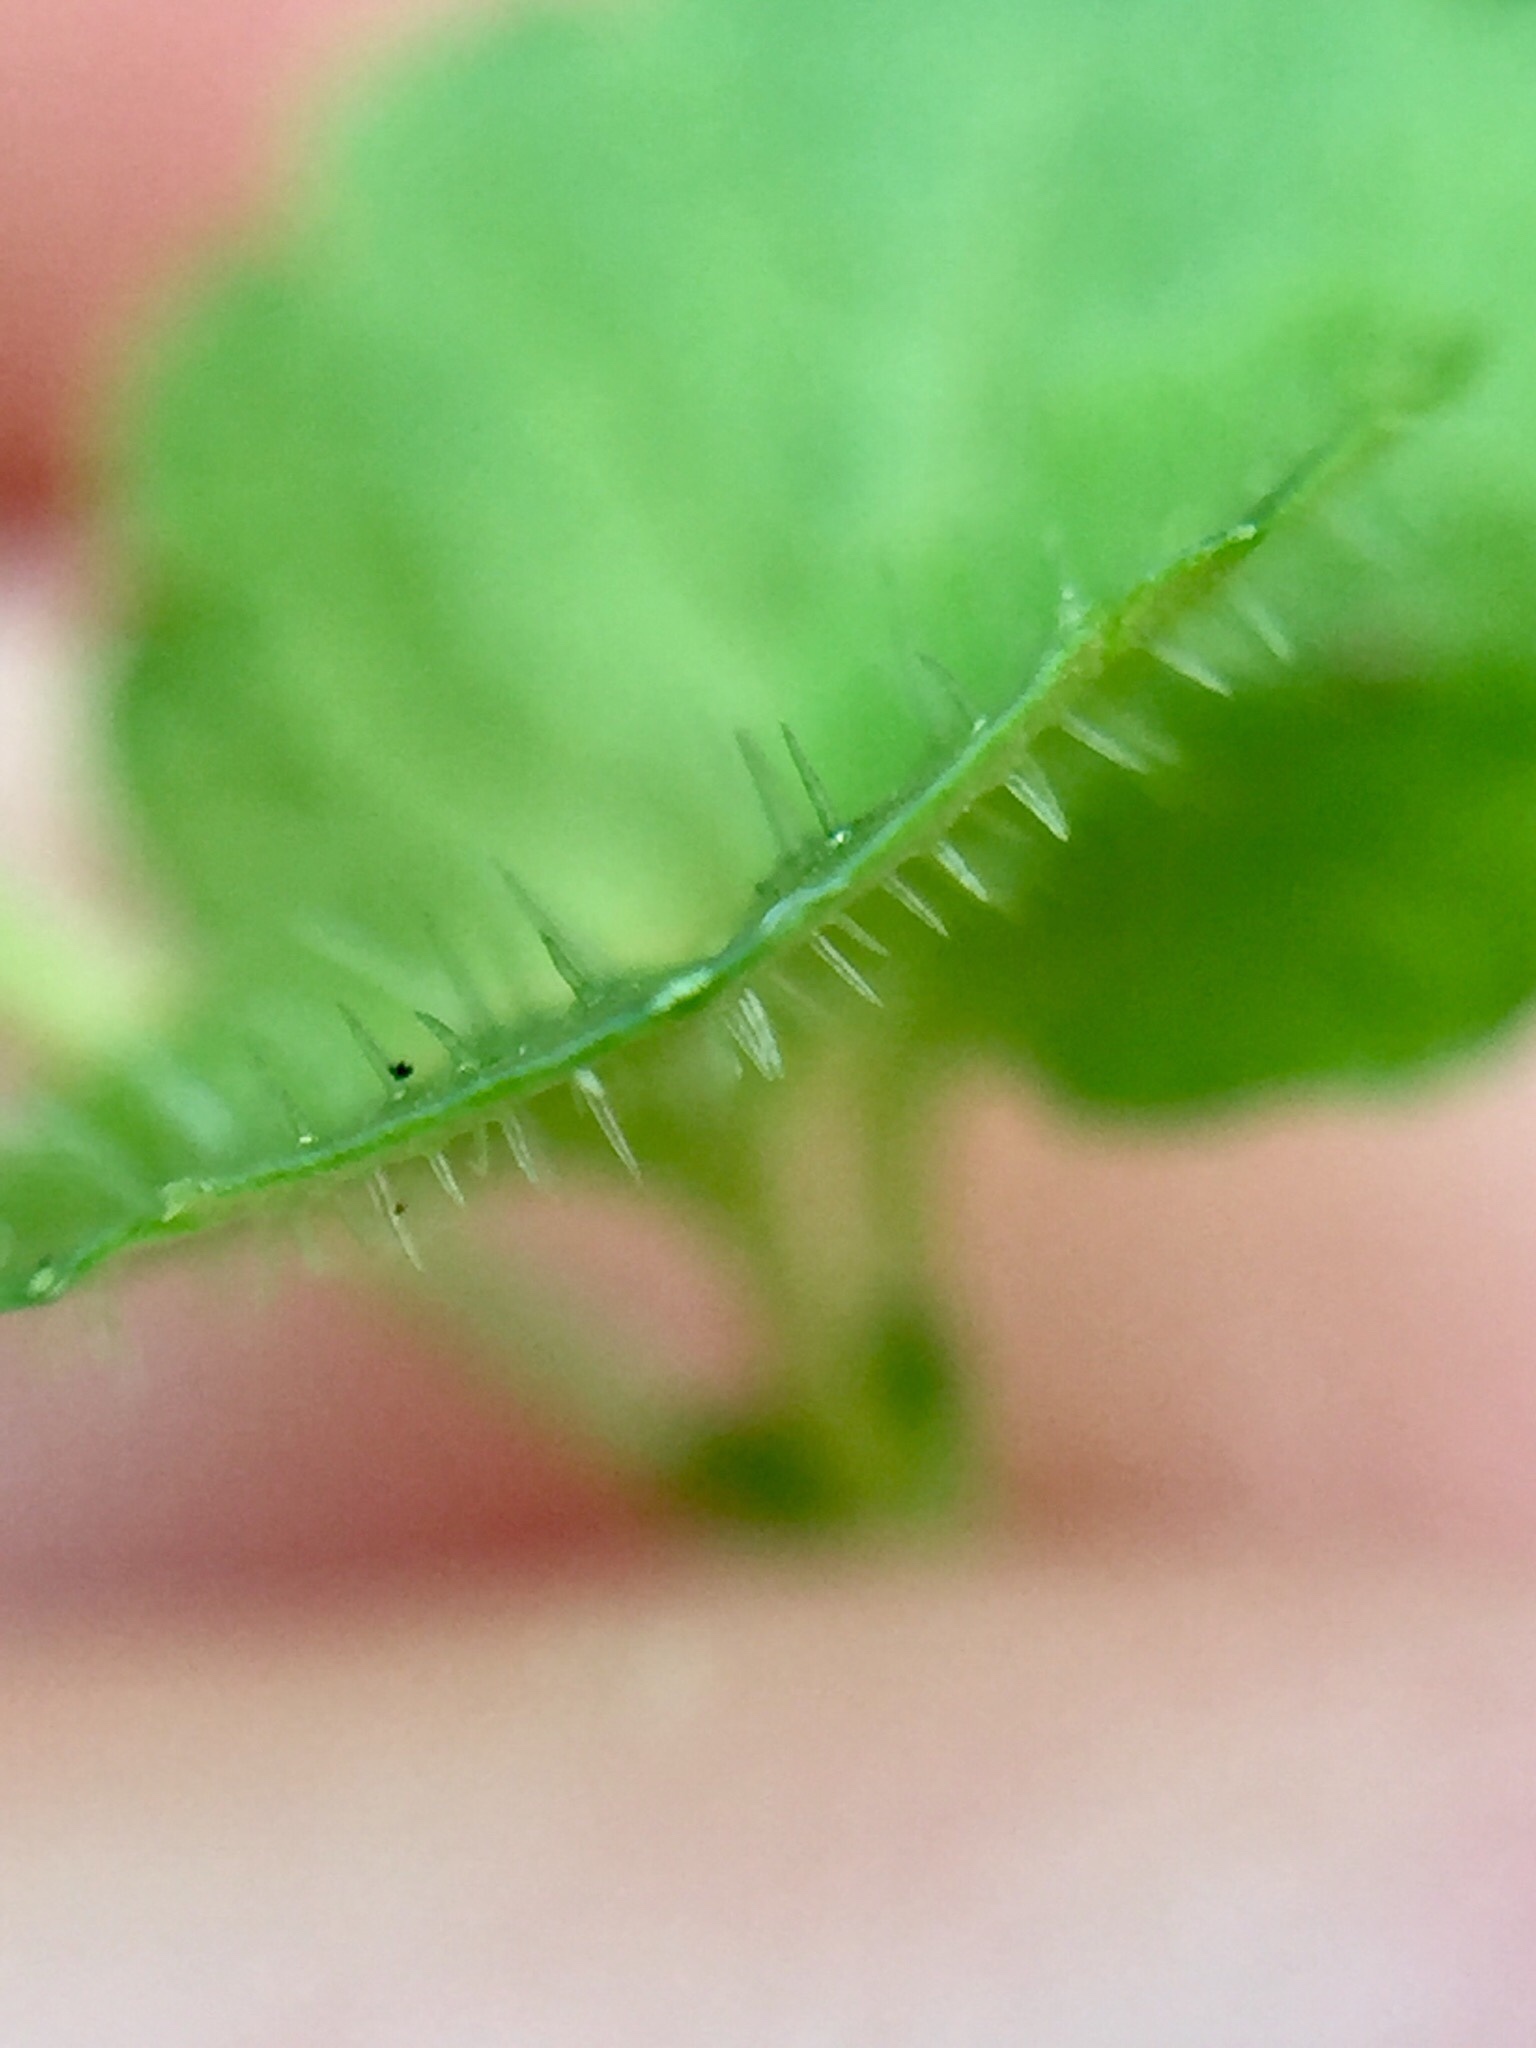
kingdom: Plantae
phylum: Tracheophyta
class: Magnoliopsida
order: Lamiales
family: Plantaginaceae
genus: Veronica
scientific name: Veronica filiformis
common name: Slender speedwell
